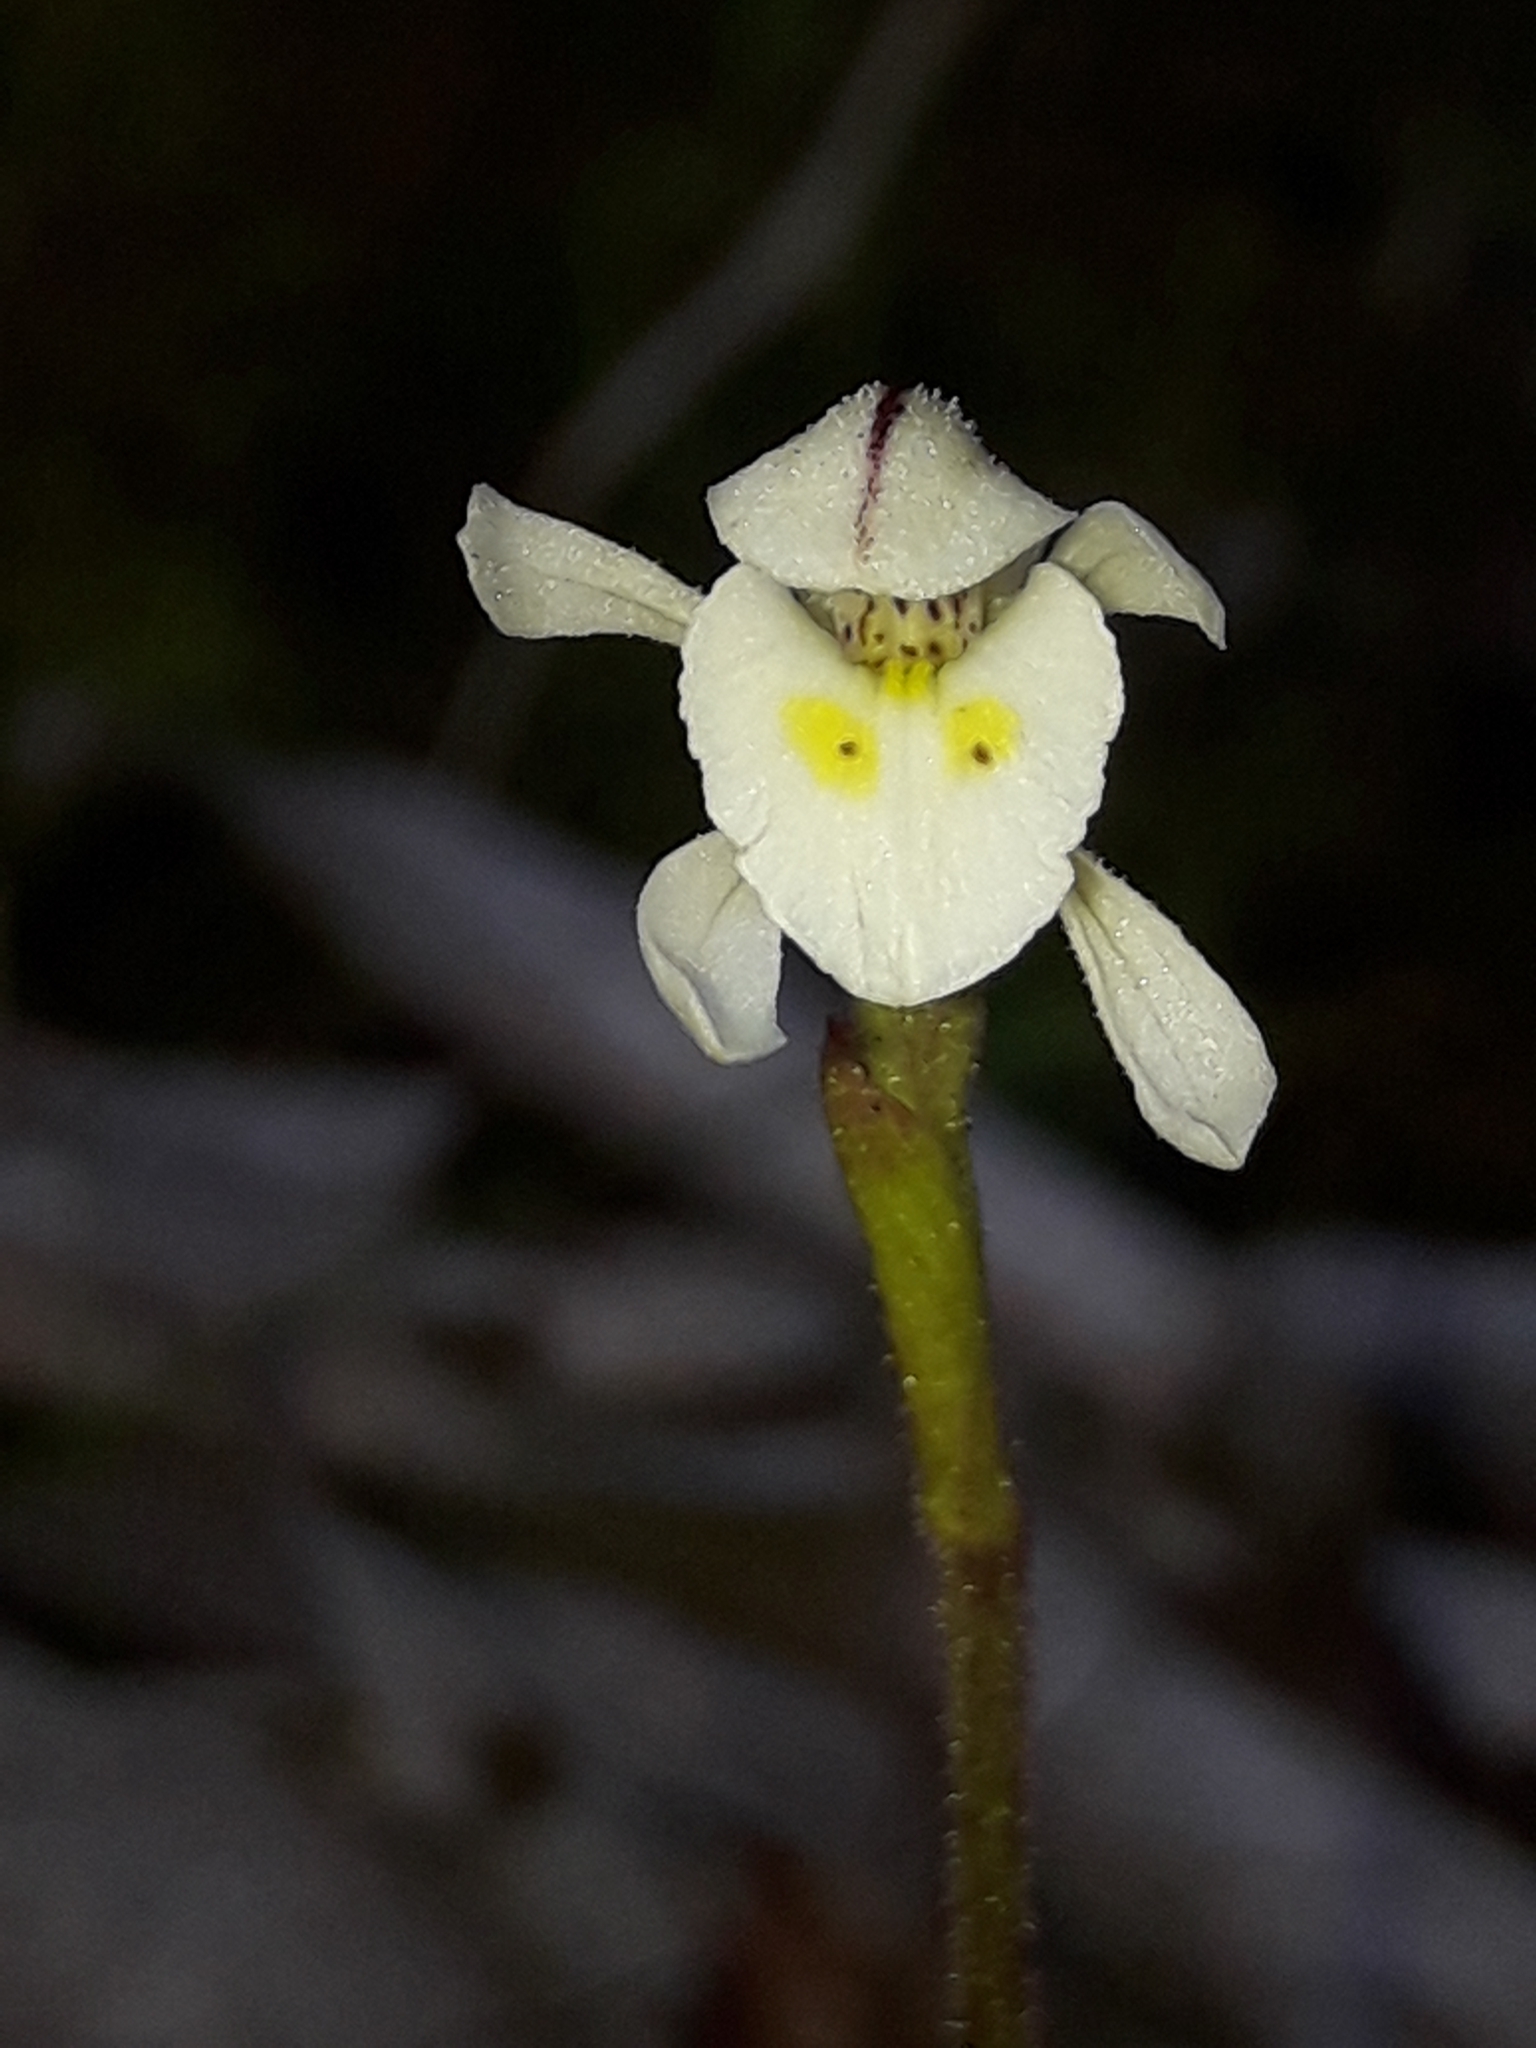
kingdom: Plantae
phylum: Tracheophyta
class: Liliopsida
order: Asparagales
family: Orchidaceae
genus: Aporostylis
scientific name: Aporostylis bifolia
